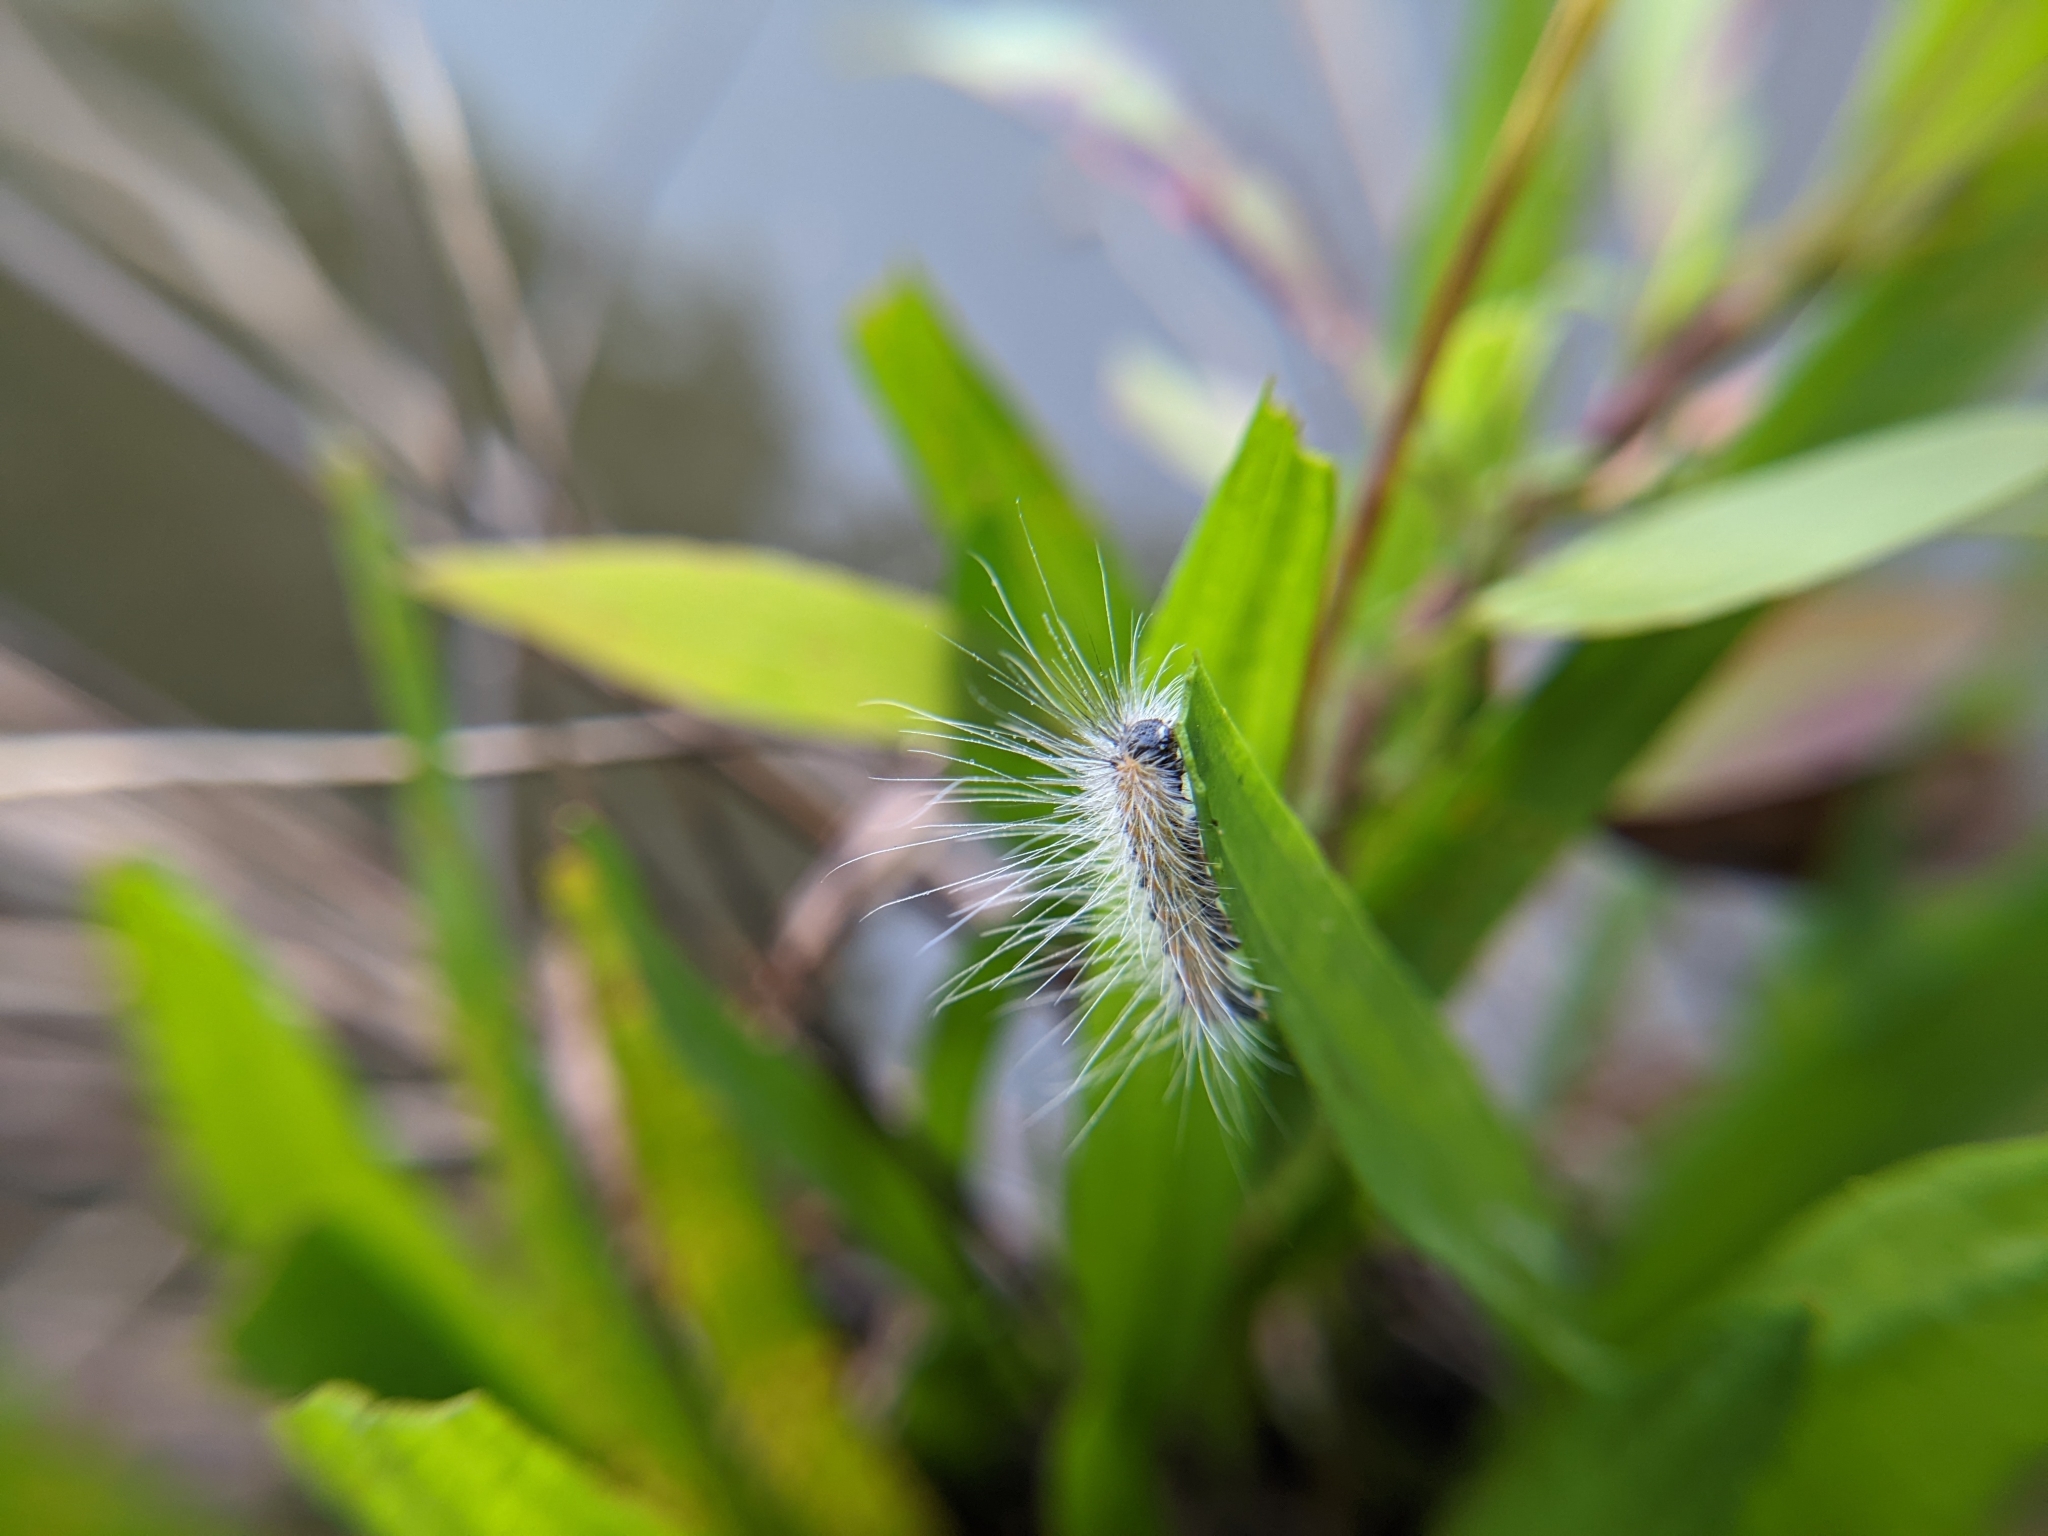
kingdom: Animalia
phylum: Arthropoda
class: Insecta
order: Lepidoptera
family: Erebidae
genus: Hyphantria
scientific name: Hyphantria cunea
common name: American white moth
